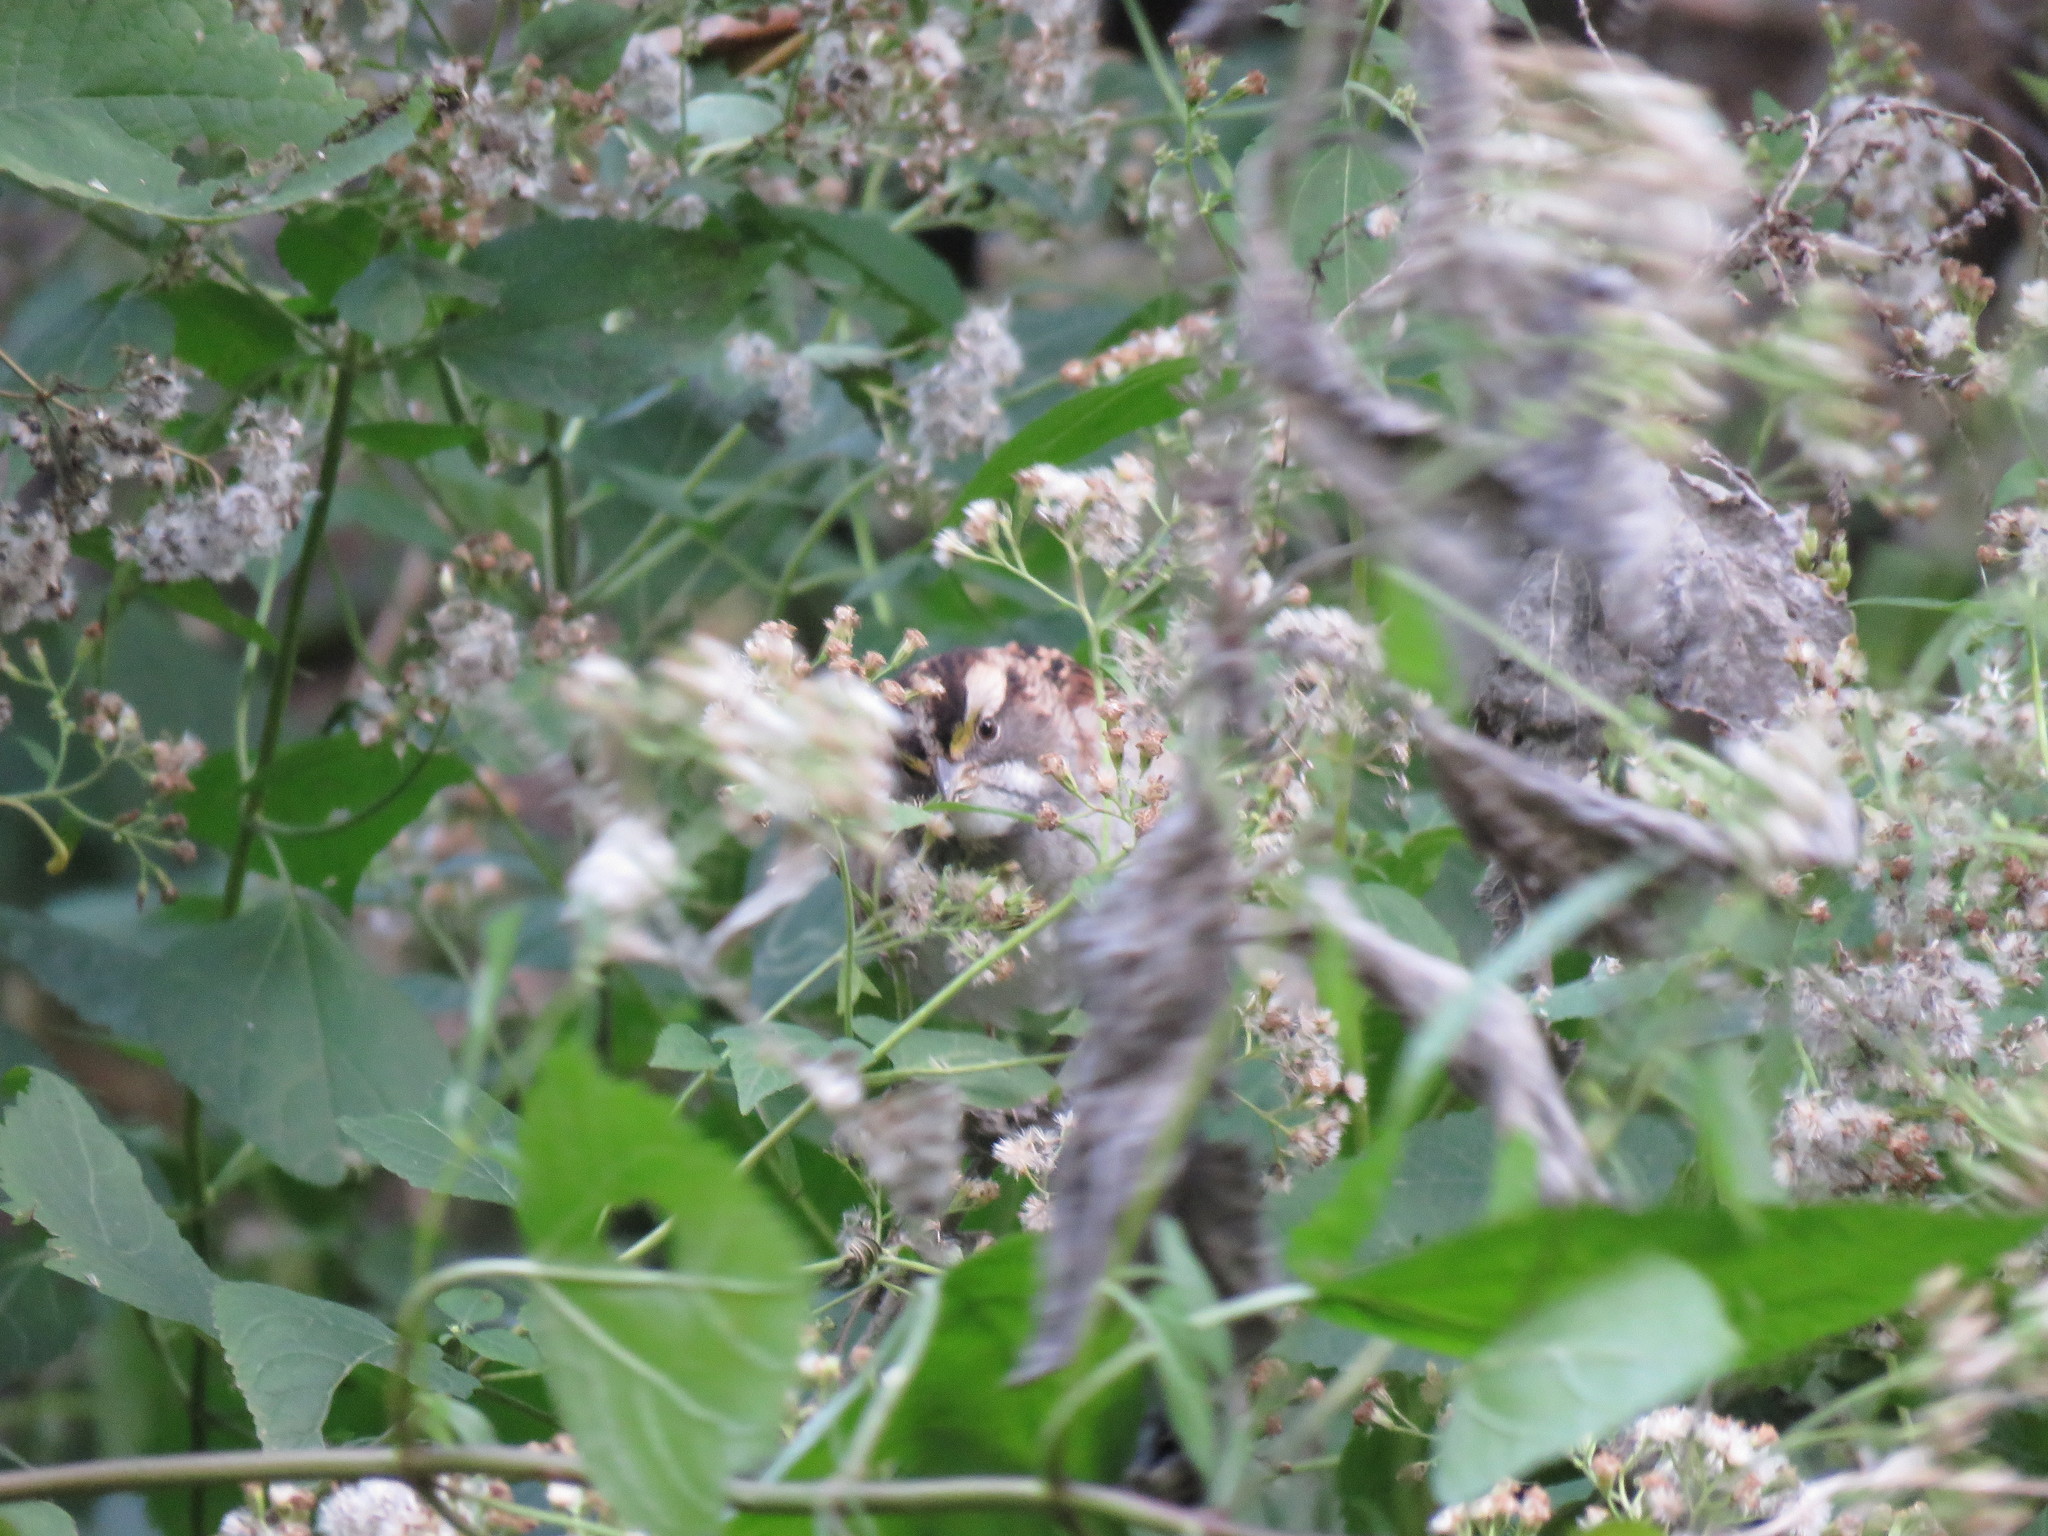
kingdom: Animalia
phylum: Chordata
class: Aves
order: Passeriformes
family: Passerellidae
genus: Zonotrichia
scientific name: Zonotrichia albicollis
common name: White-throated sparrow
